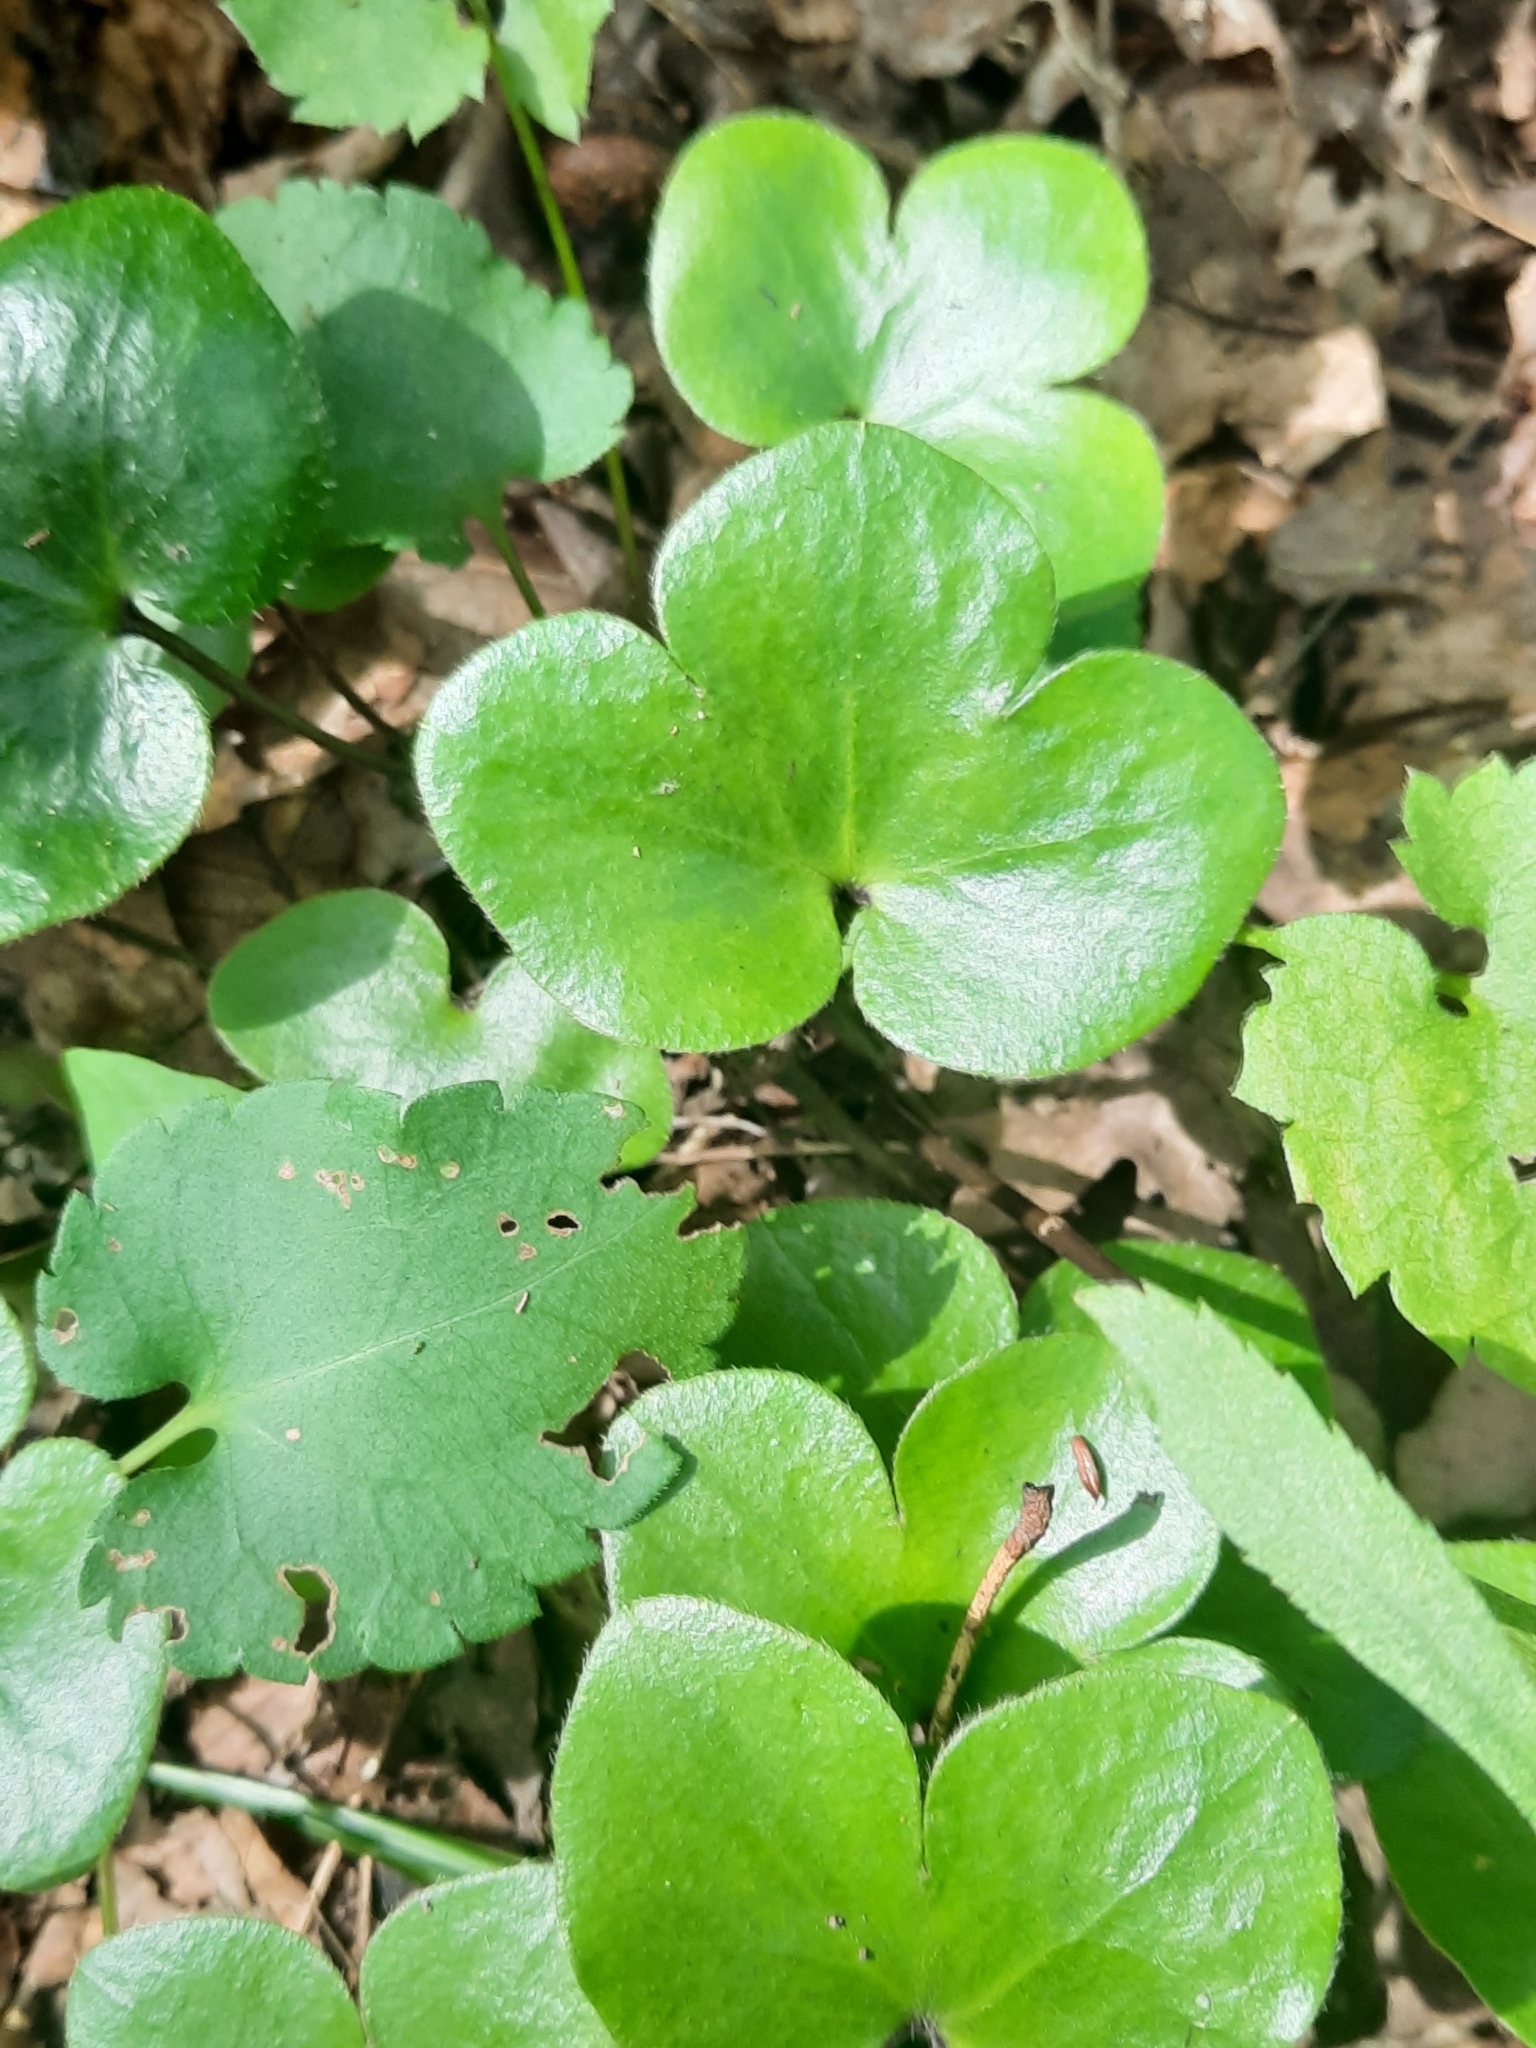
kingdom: Plantae
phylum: Tracheophyta
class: Magnoliopsida
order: Ranunculales
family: Ranunculaceae
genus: Hepatica
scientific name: Hepatica americana
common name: American hepatica
